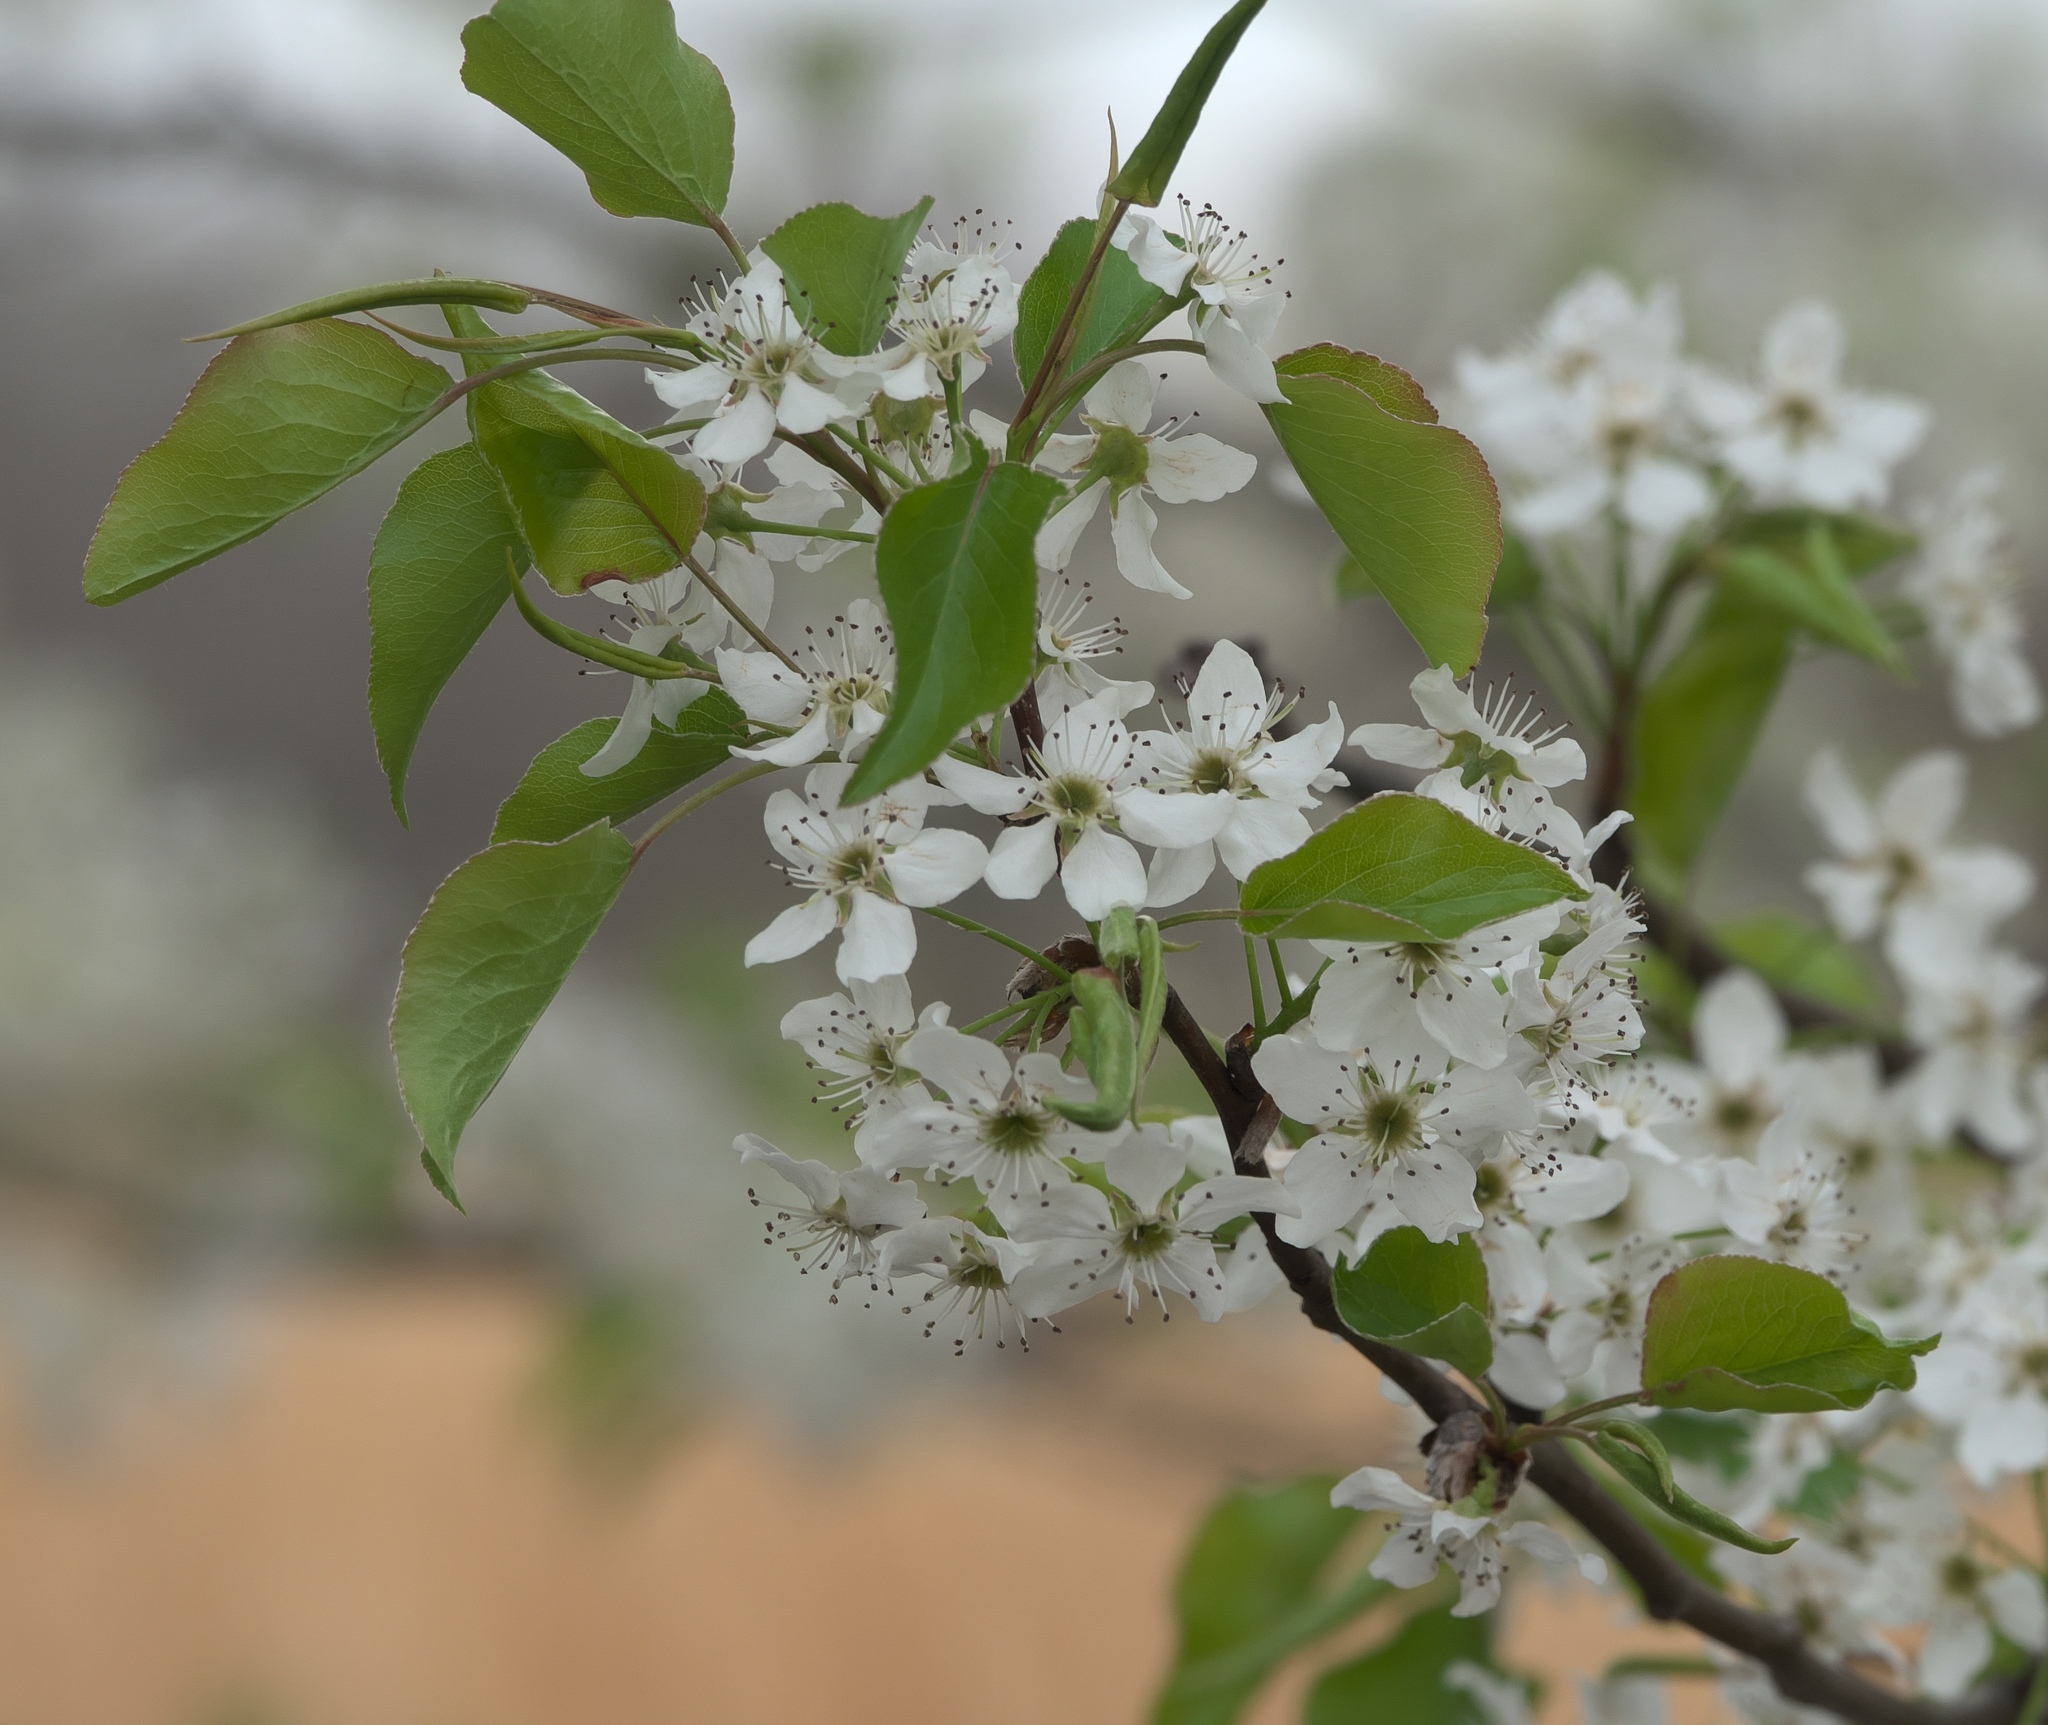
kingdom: Plantae
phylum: Tracheophyta
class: Magnoliopsida
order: Rosales
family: Rosaceae
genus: Pyrus
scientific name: Pyrus calleryana
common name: Callery pear
